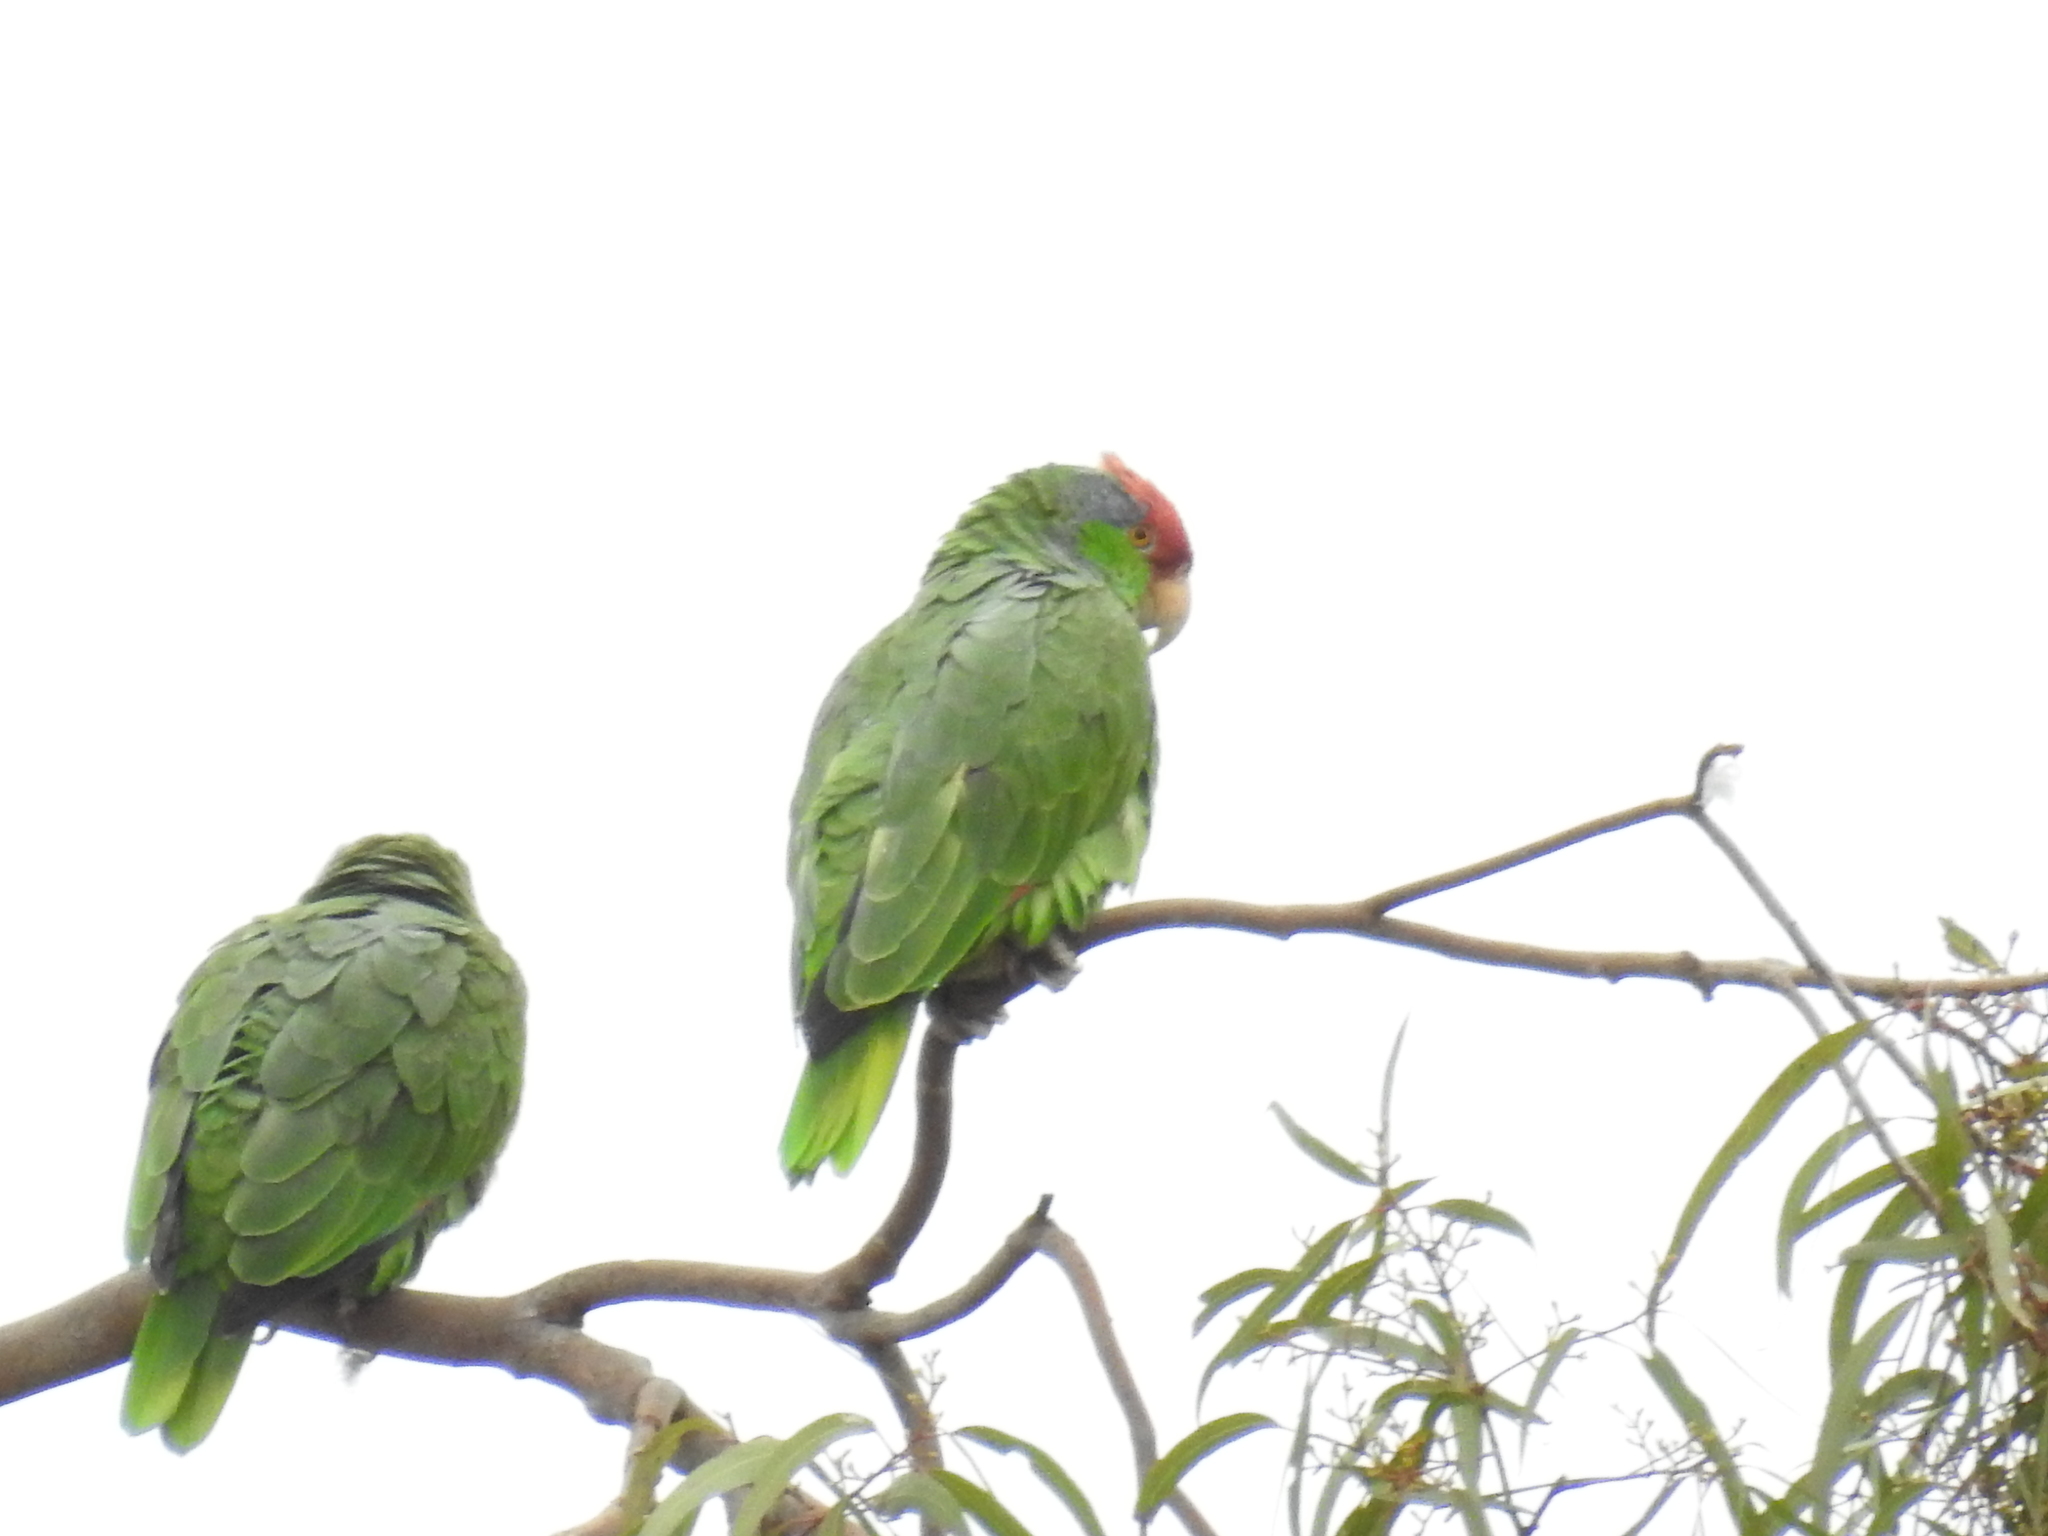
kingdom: Animalia
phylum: Chordata
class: Aves
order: Psittaciformes
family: Psittacidae
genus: Amazona
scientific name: Amazona viridigenalis
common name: Red-crowned amazon
